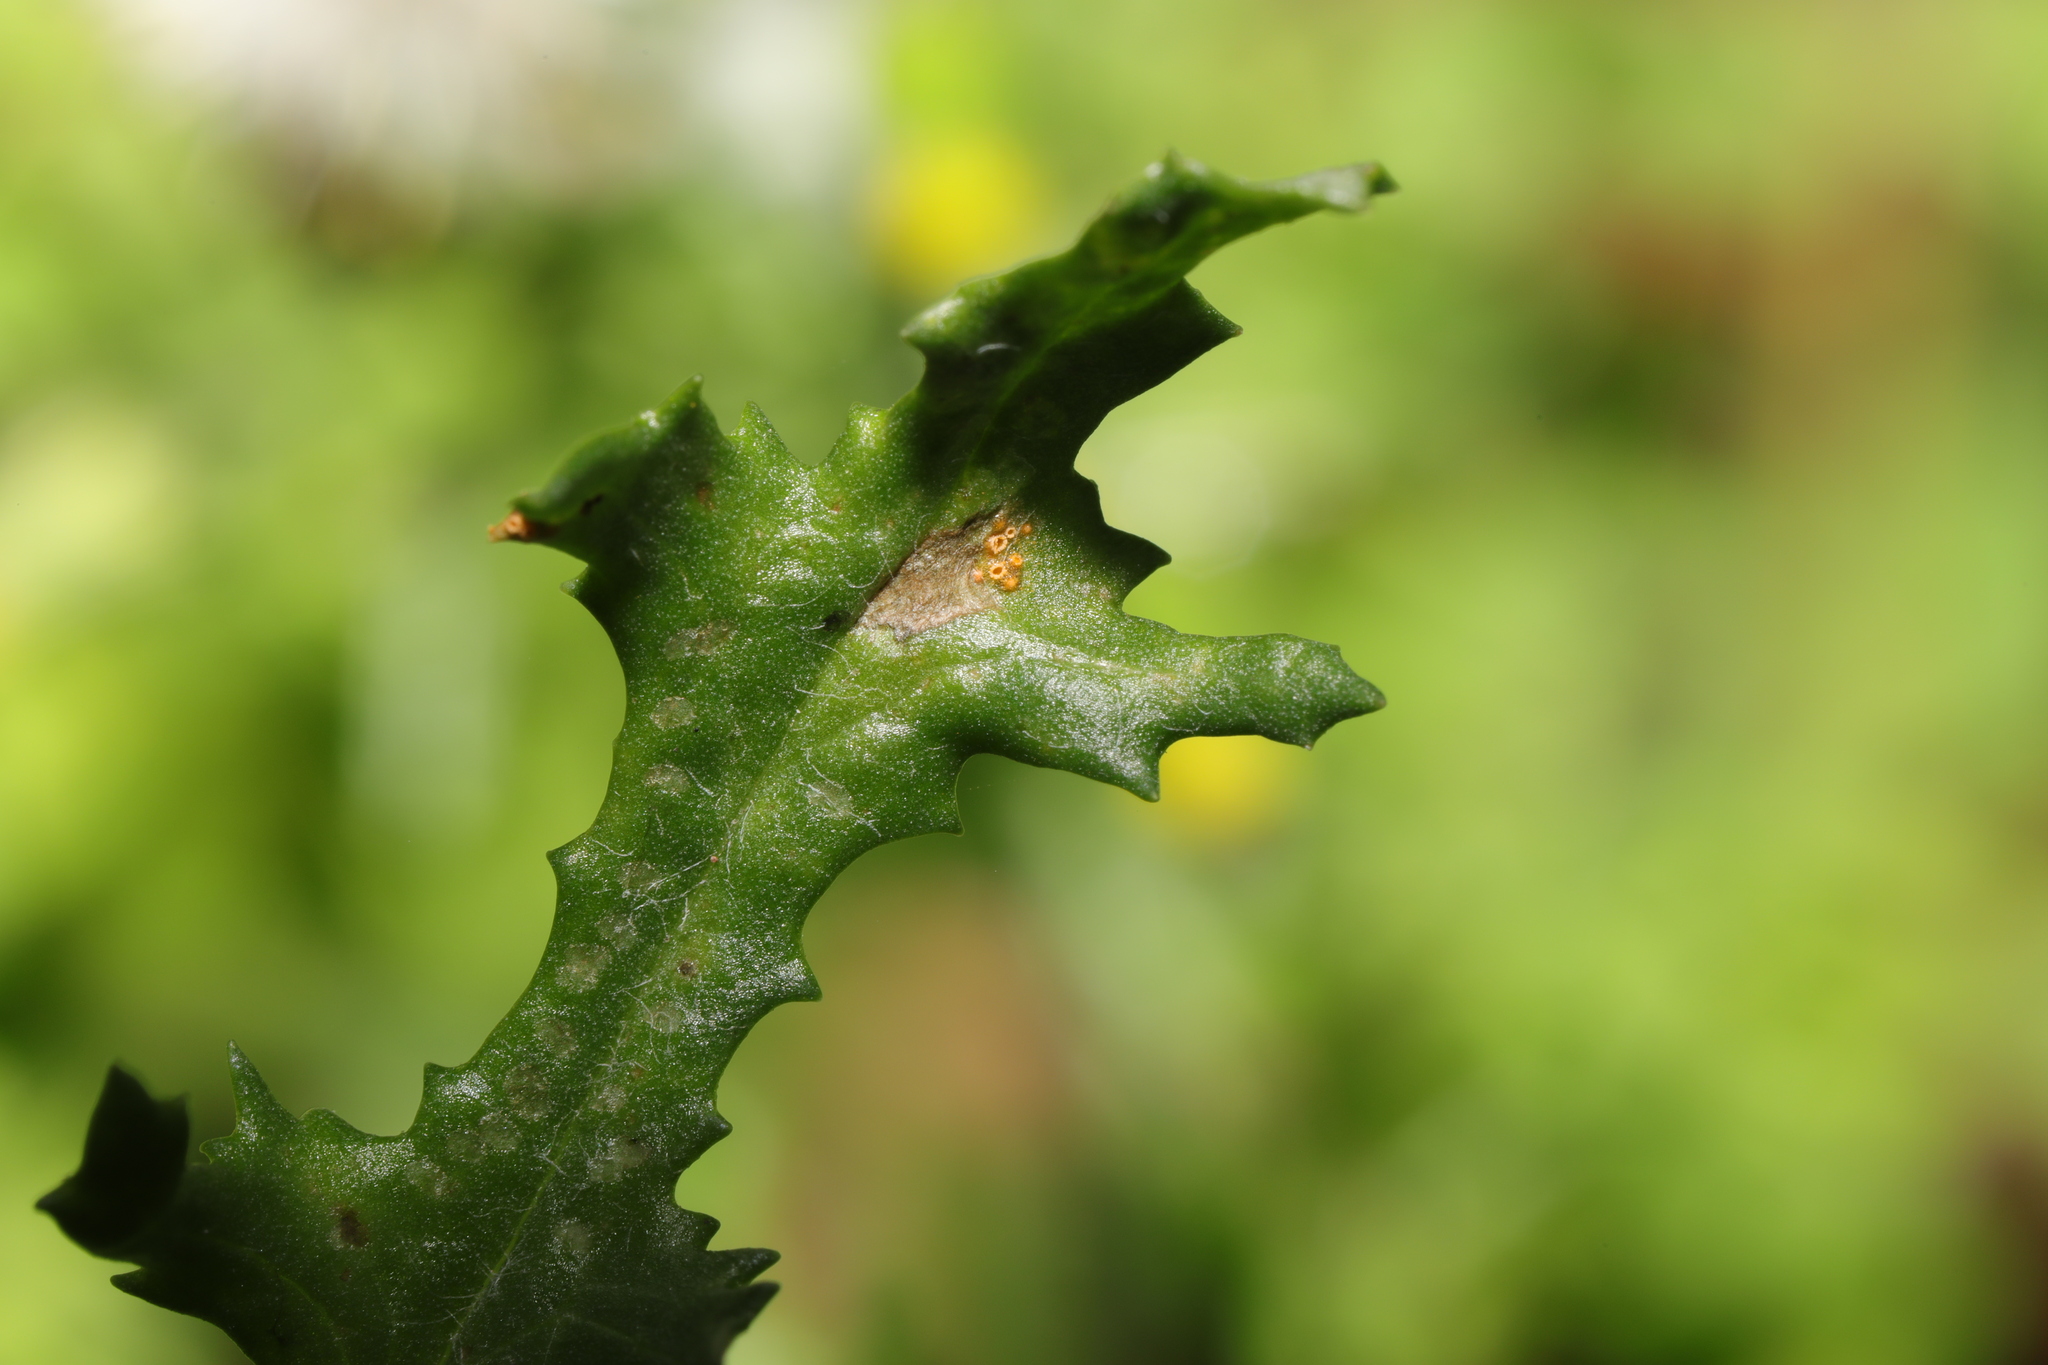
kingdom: Fungi
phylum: Basidiomycota
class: Pucciniomycetes
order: Pucciniales
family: Pucciniaceae
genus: Puccinia
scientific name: Puccinia lagenophorae
